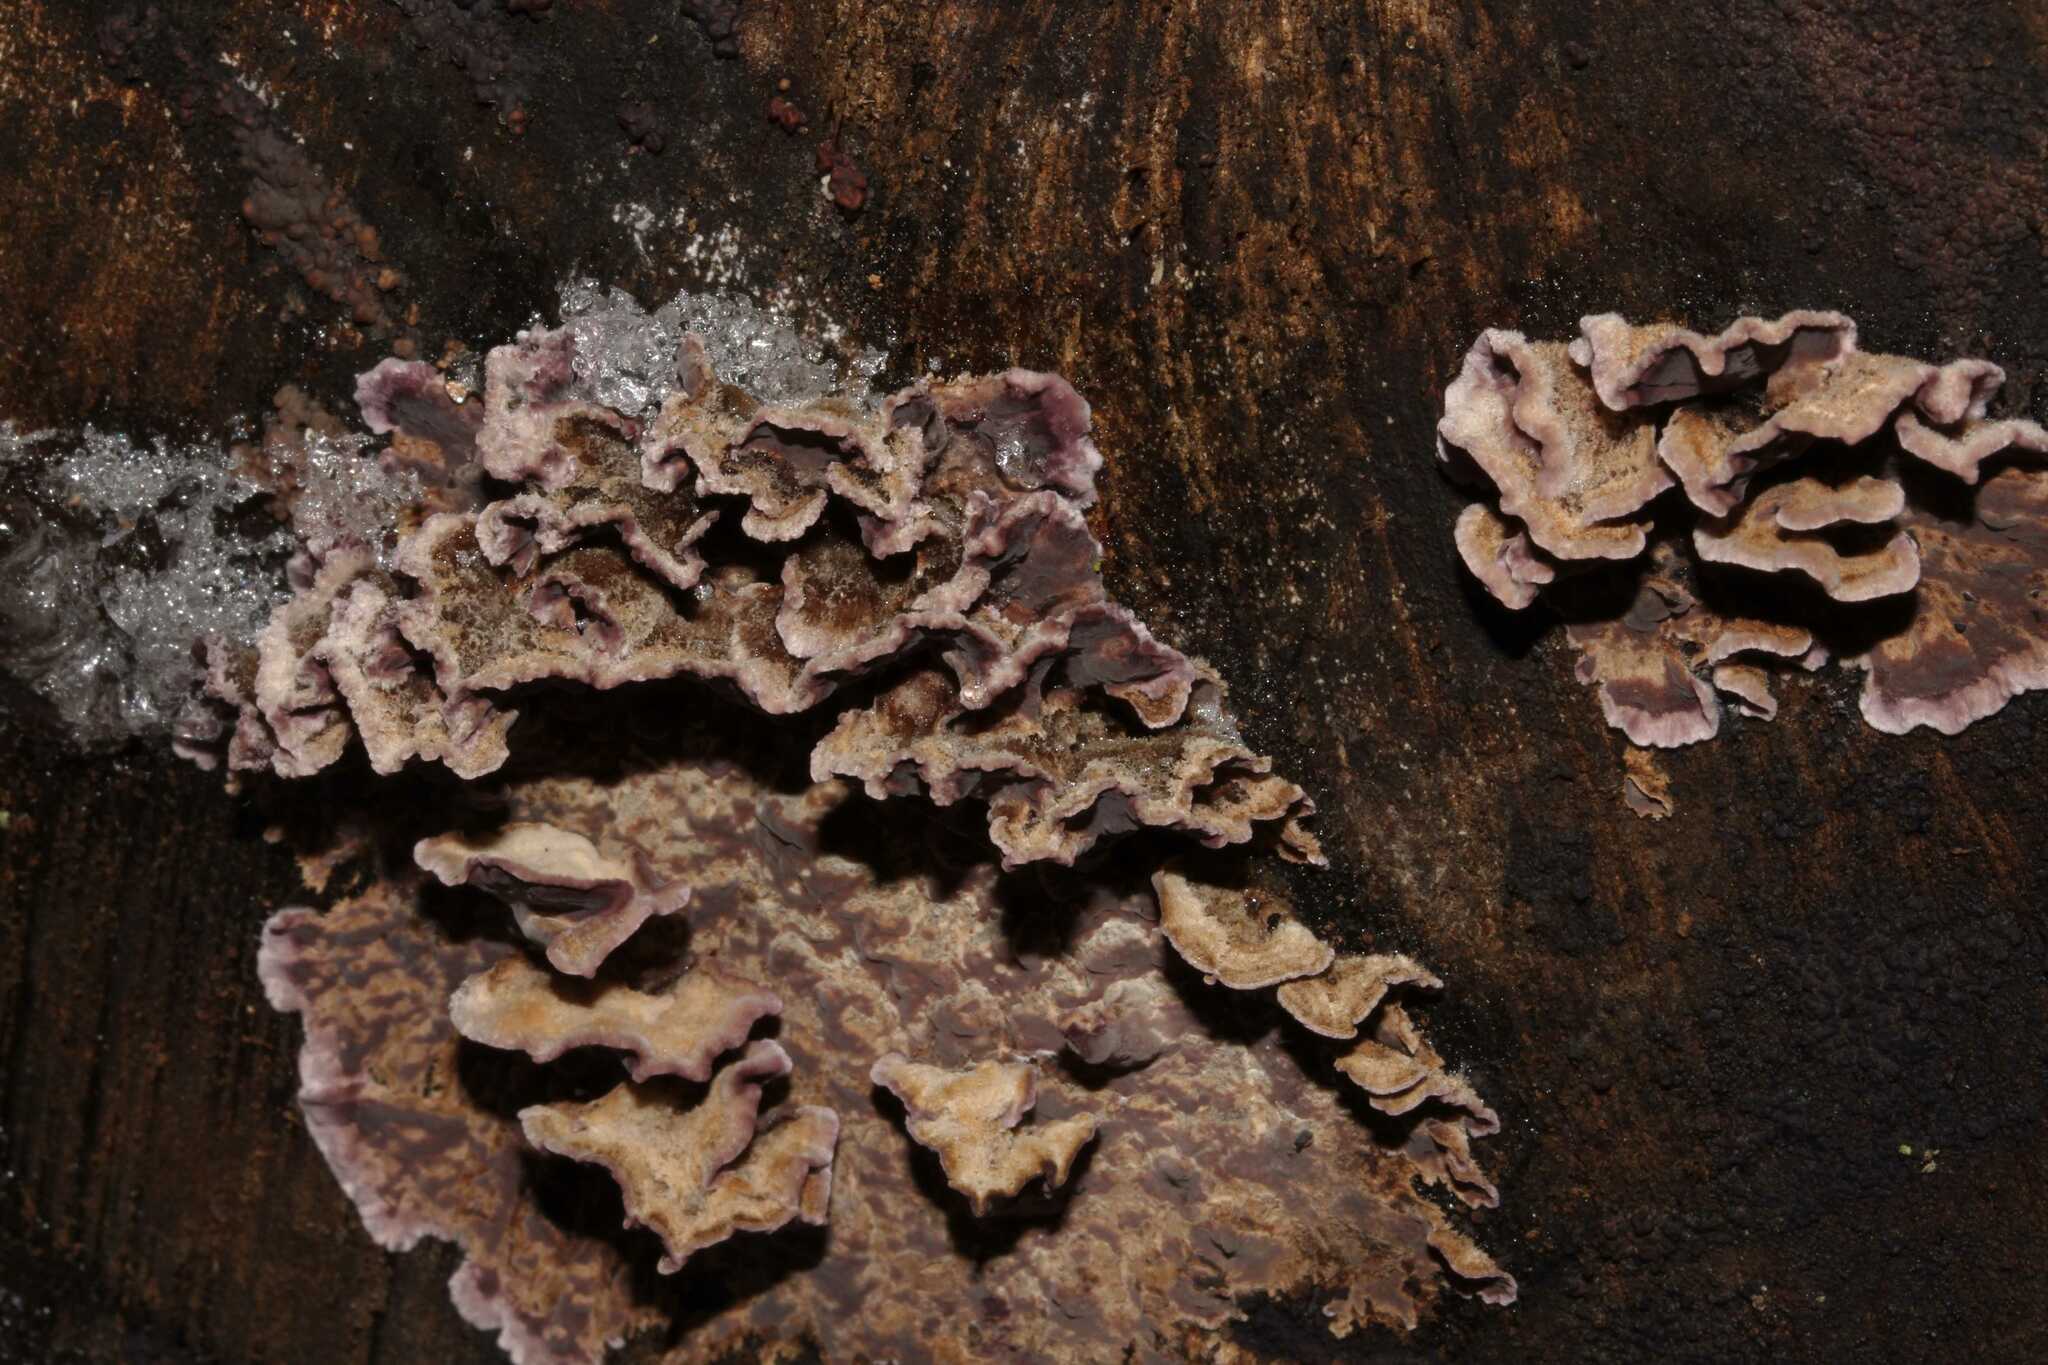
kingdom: Fungi
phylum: Basidiomycota
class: Agaricomycetes
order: Agaricales
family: Cyphellaceae
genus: Chondrostereum
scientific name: Chondrostereum purpureum
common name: Silver leaf disease
